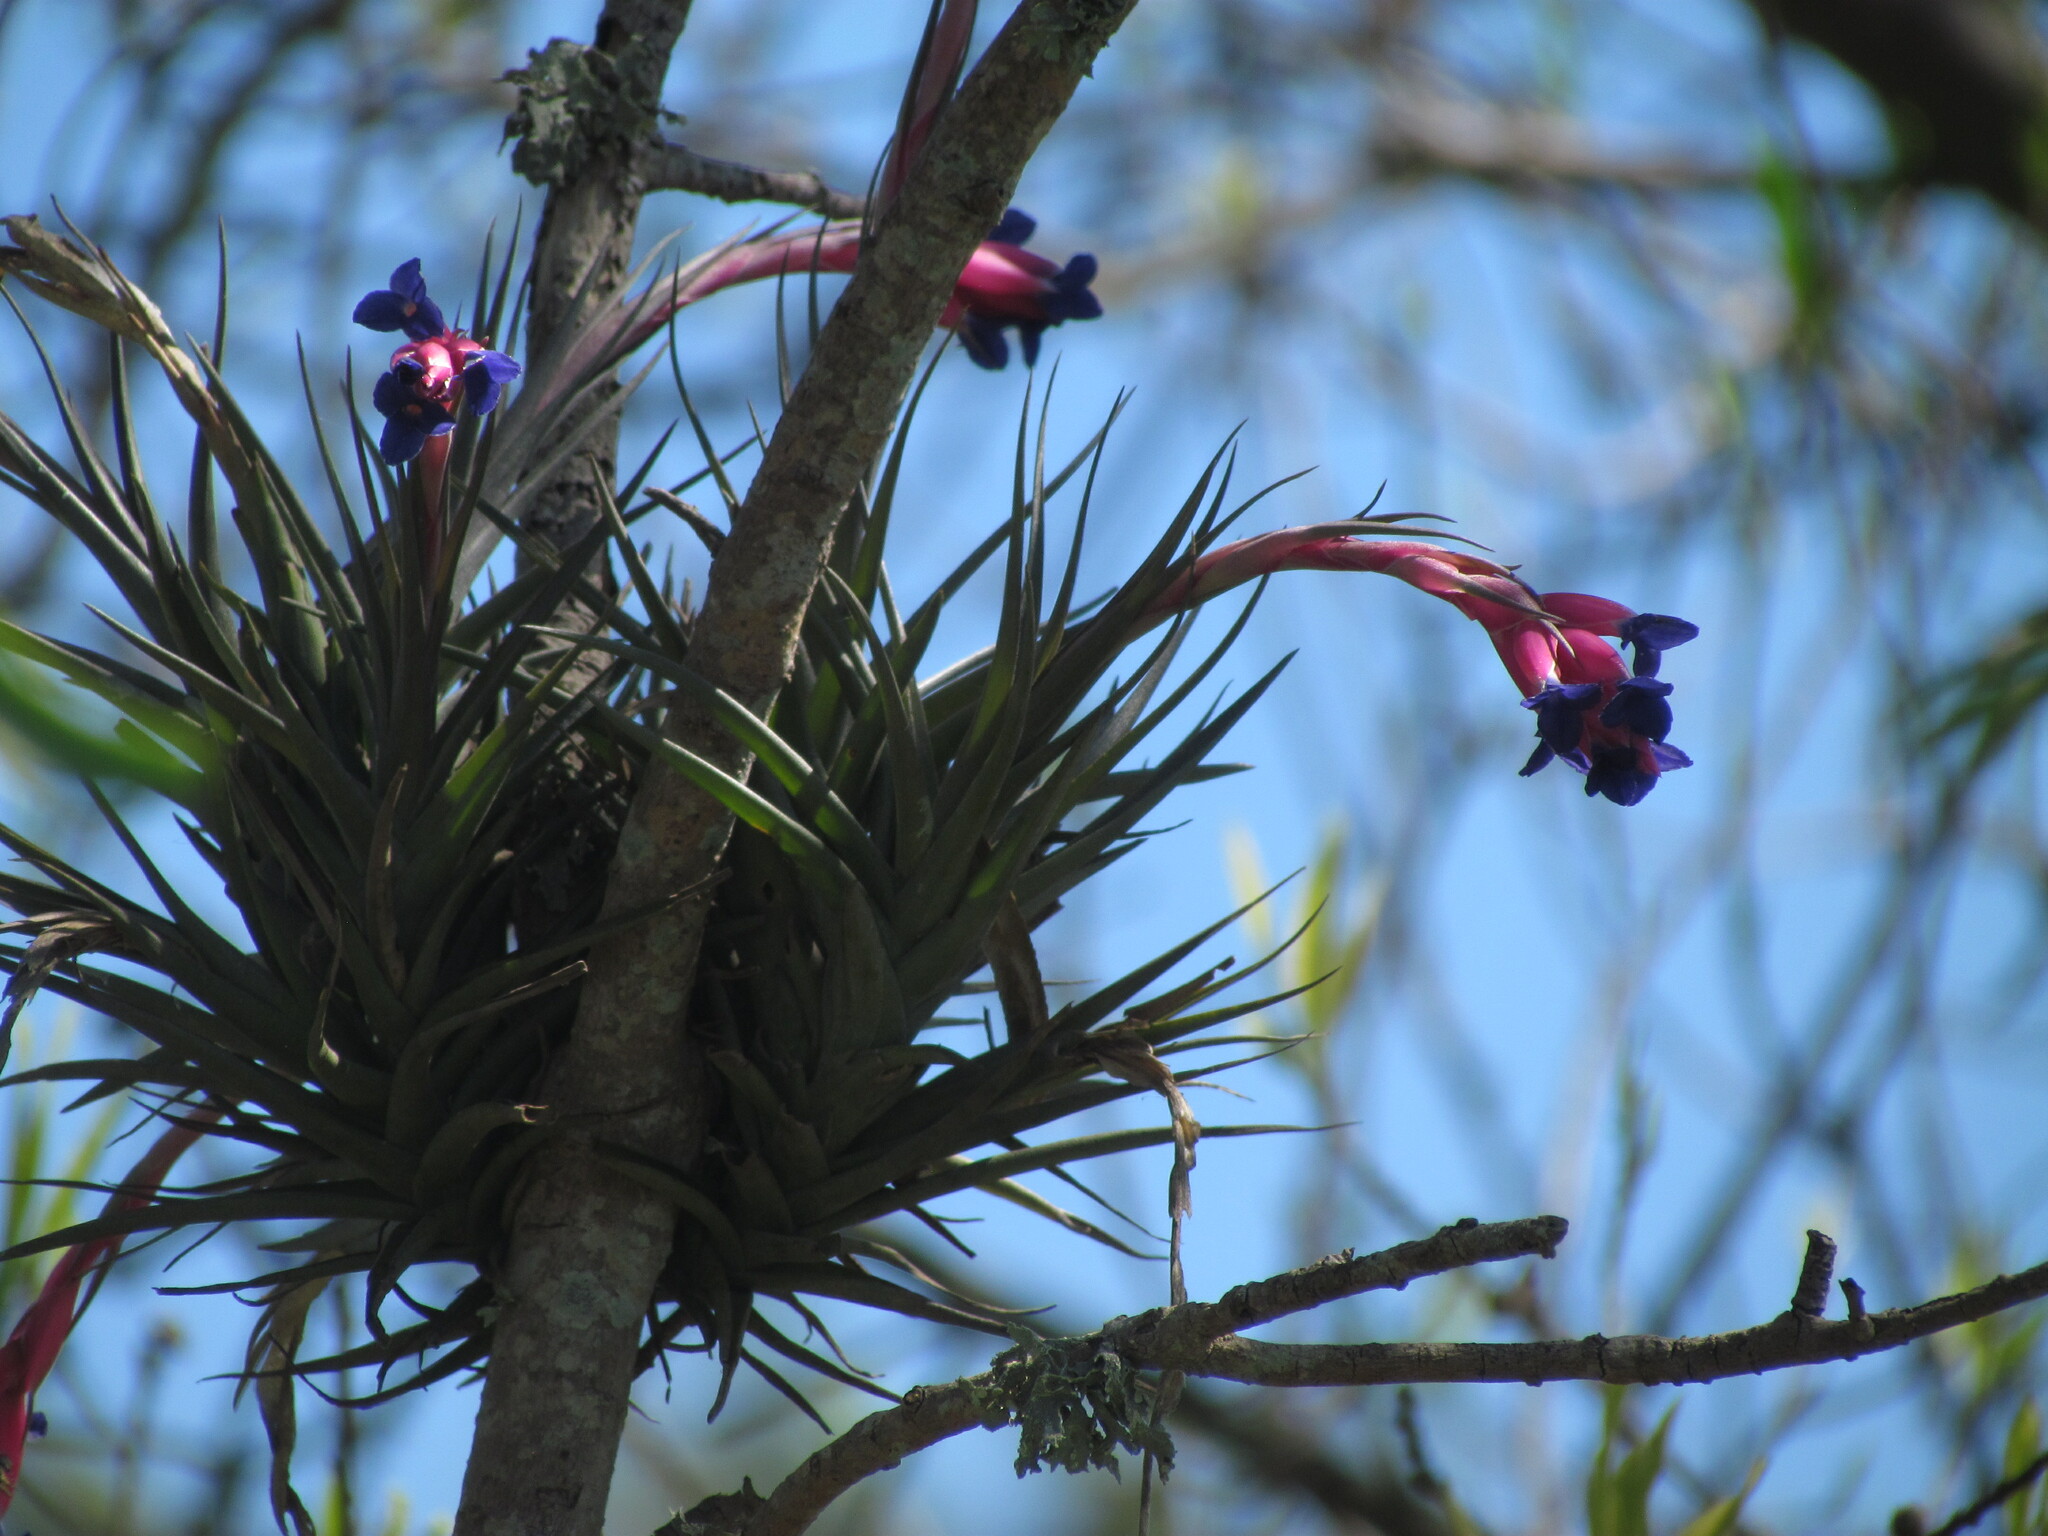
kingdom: Plantae
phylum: Tracheophyta
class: Liliopsida
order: Poales
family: Bromeliaceae
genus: Tillandsia
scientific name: Tillandsia aeranthos
